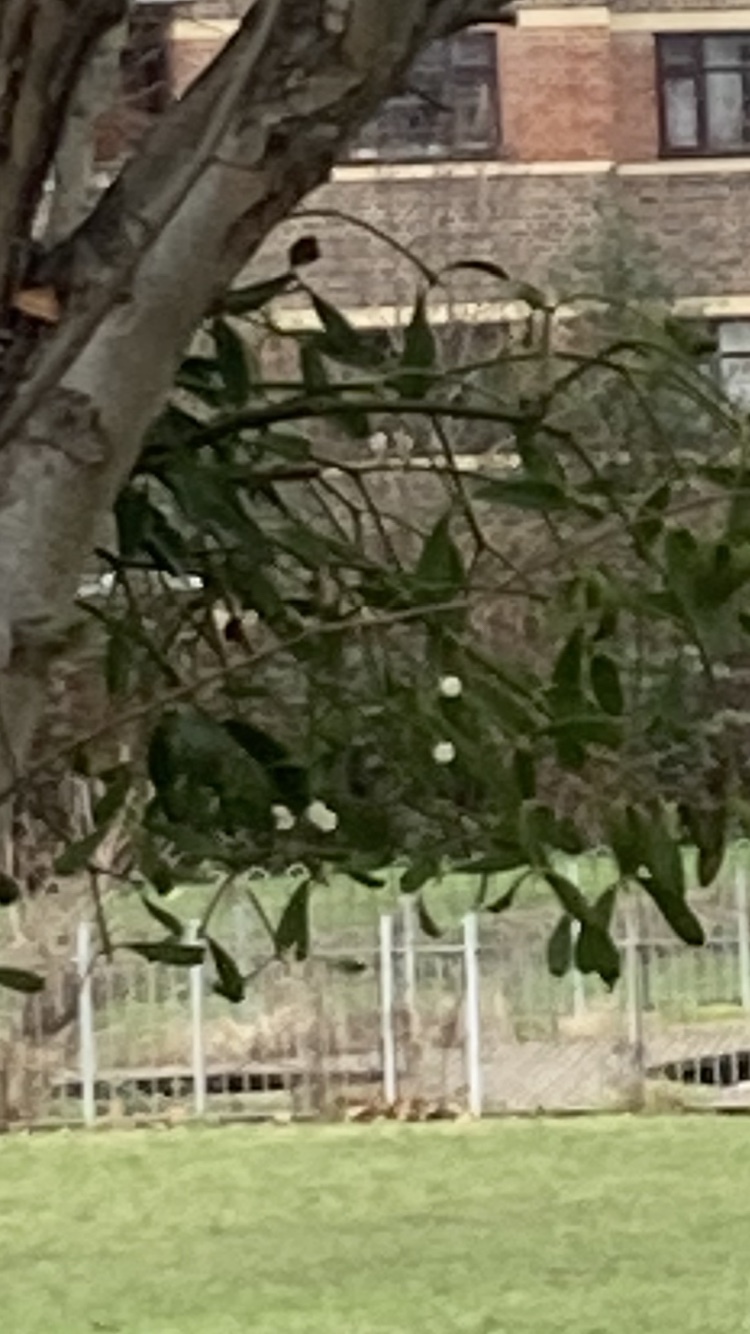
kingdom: Plantae
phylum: Tracheophyta
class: Magnoliopsida
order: Santalales
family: Viscaceae
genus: Viscum
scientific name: Viscum album
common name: Mistletoe
